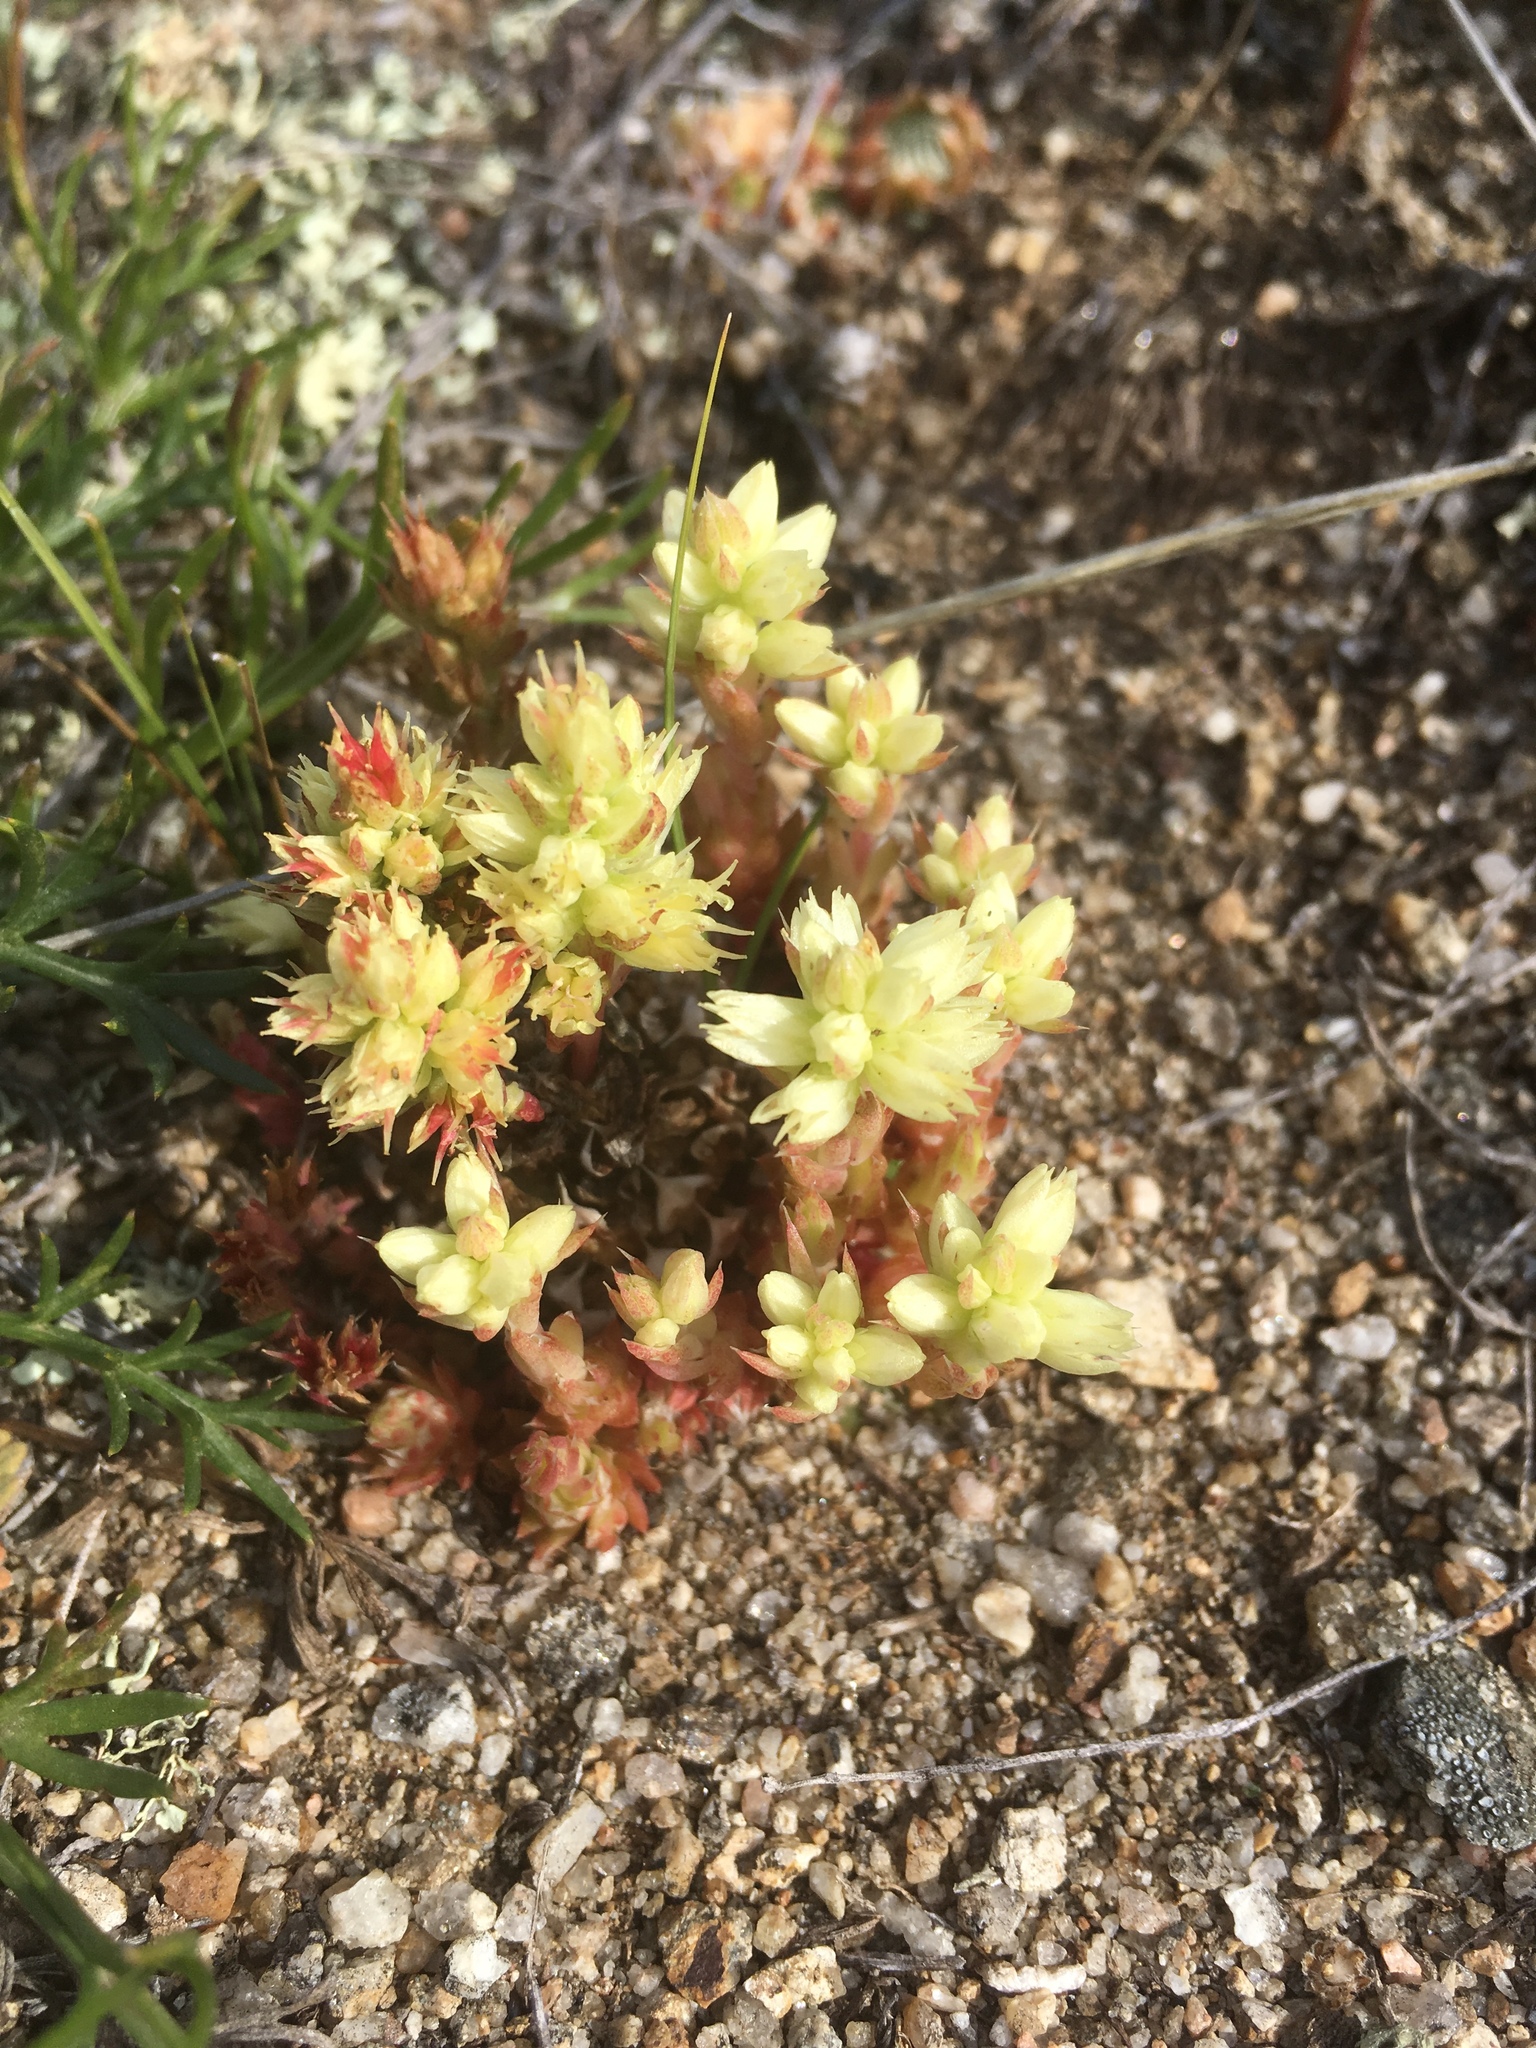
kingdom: Plantae
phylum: Tracheophyta
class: Magnoliopsida
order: Saxifragales
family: Crassulaceae
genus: Orostachys
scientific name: Orostachys spinosa
